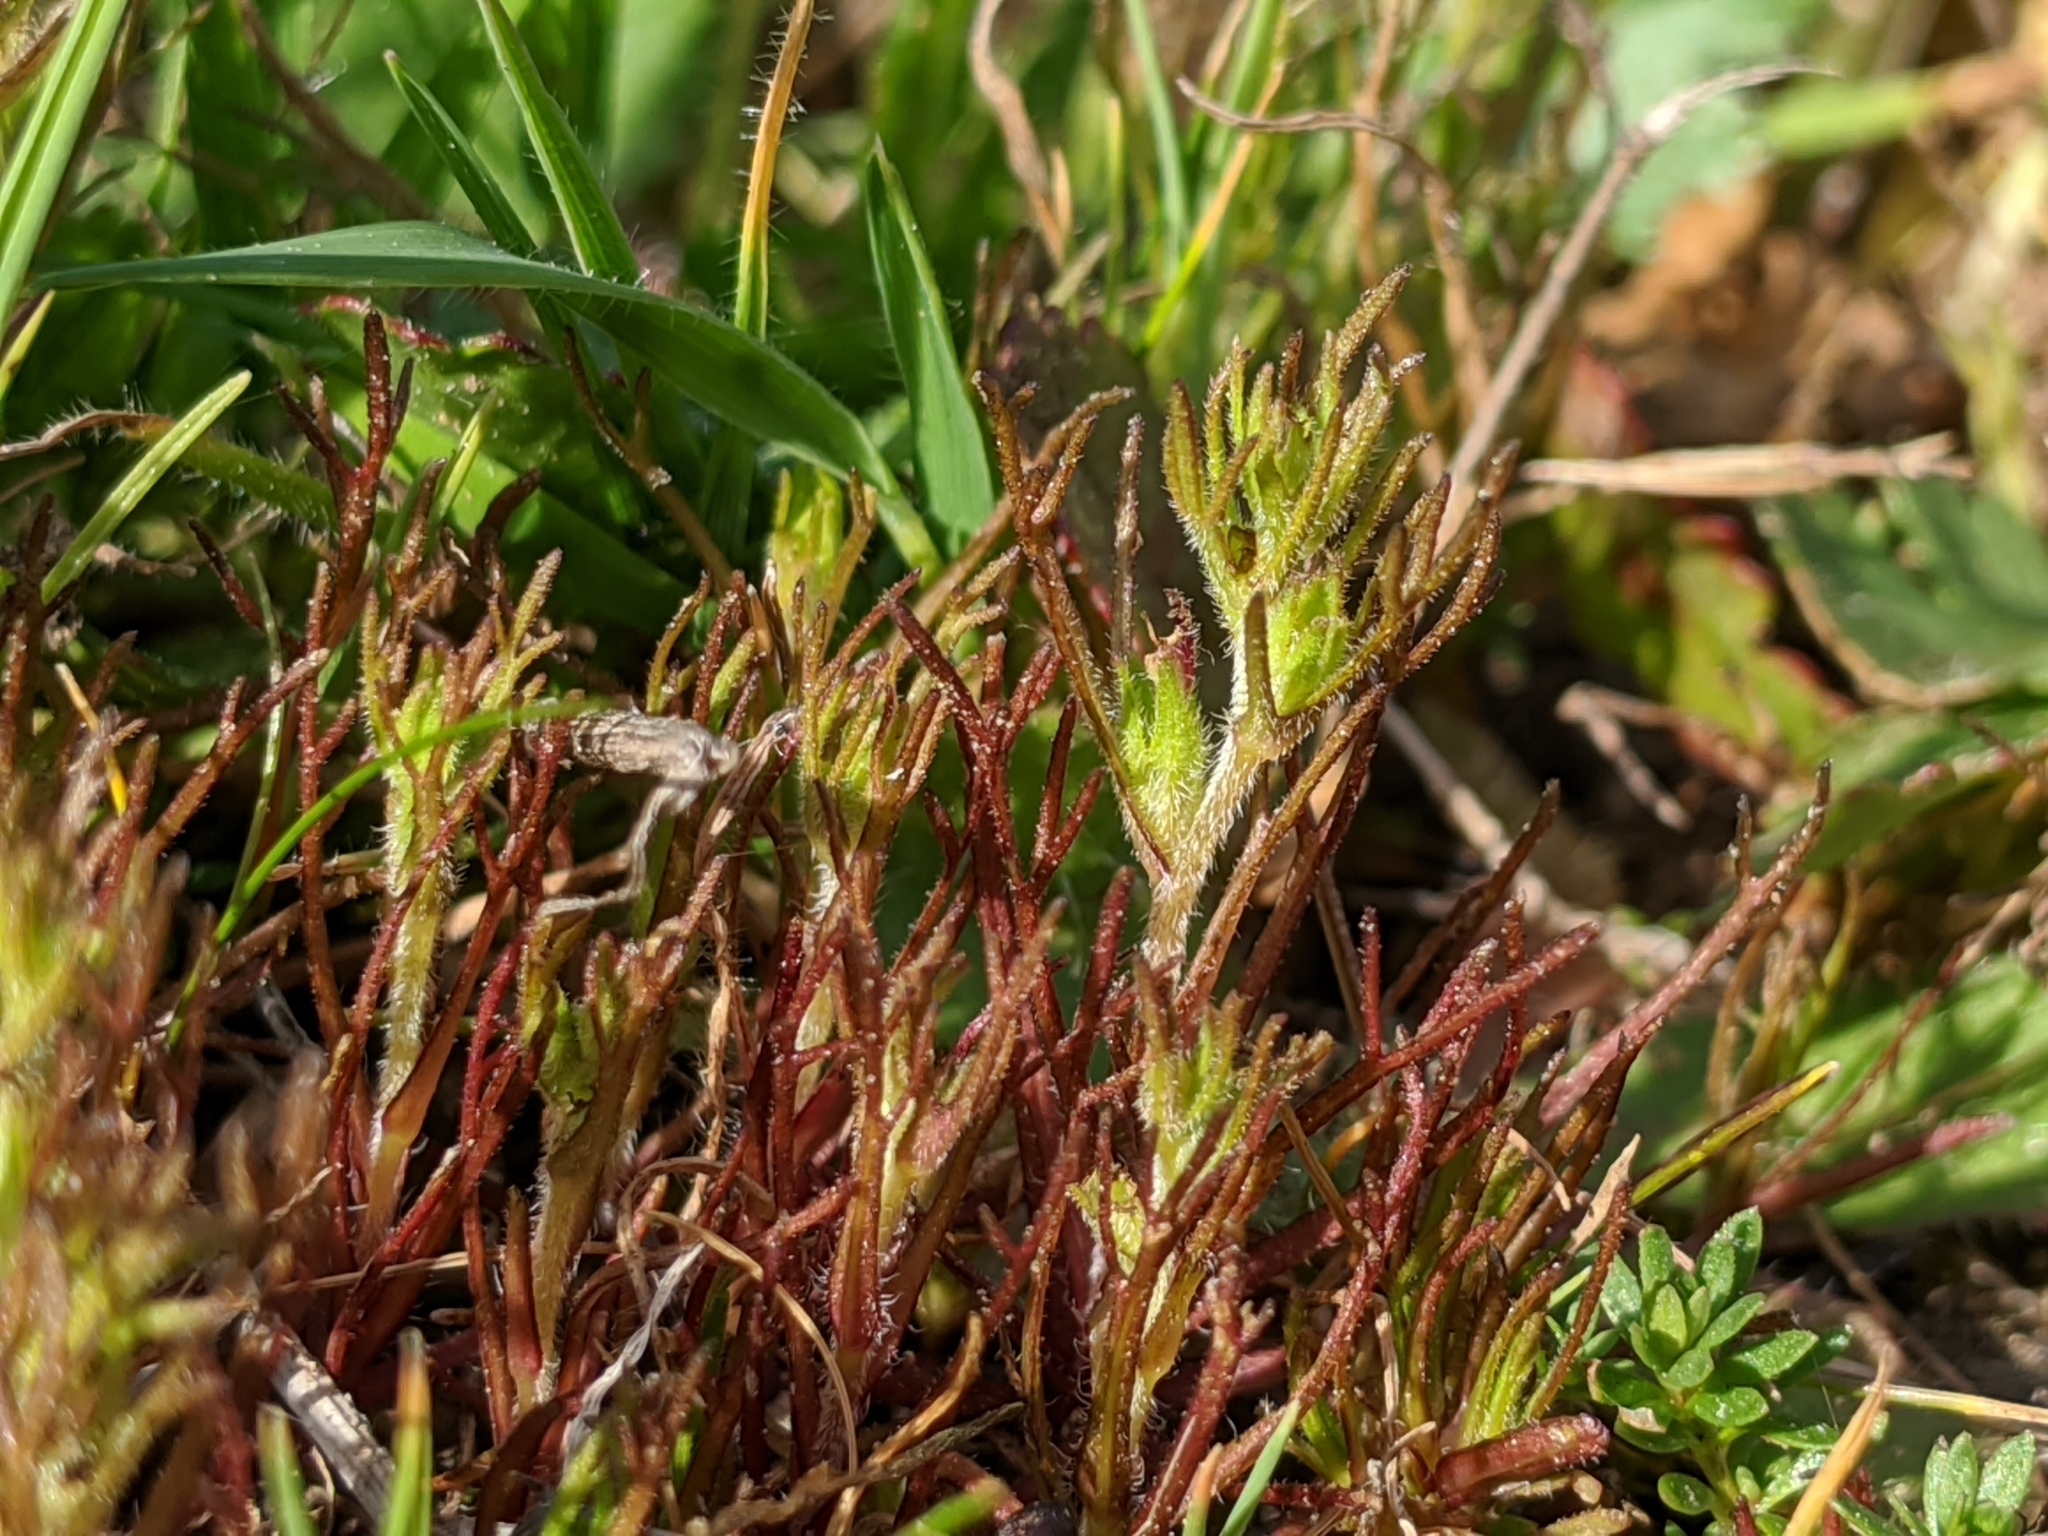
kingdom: Plantae
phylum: Tracheophyta
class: Magnoliopsida
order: Lamiales
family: Orobanchaceae
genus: Triphysaria
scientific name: Triphysaria pusilla
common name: Dwarf false owl-clover
